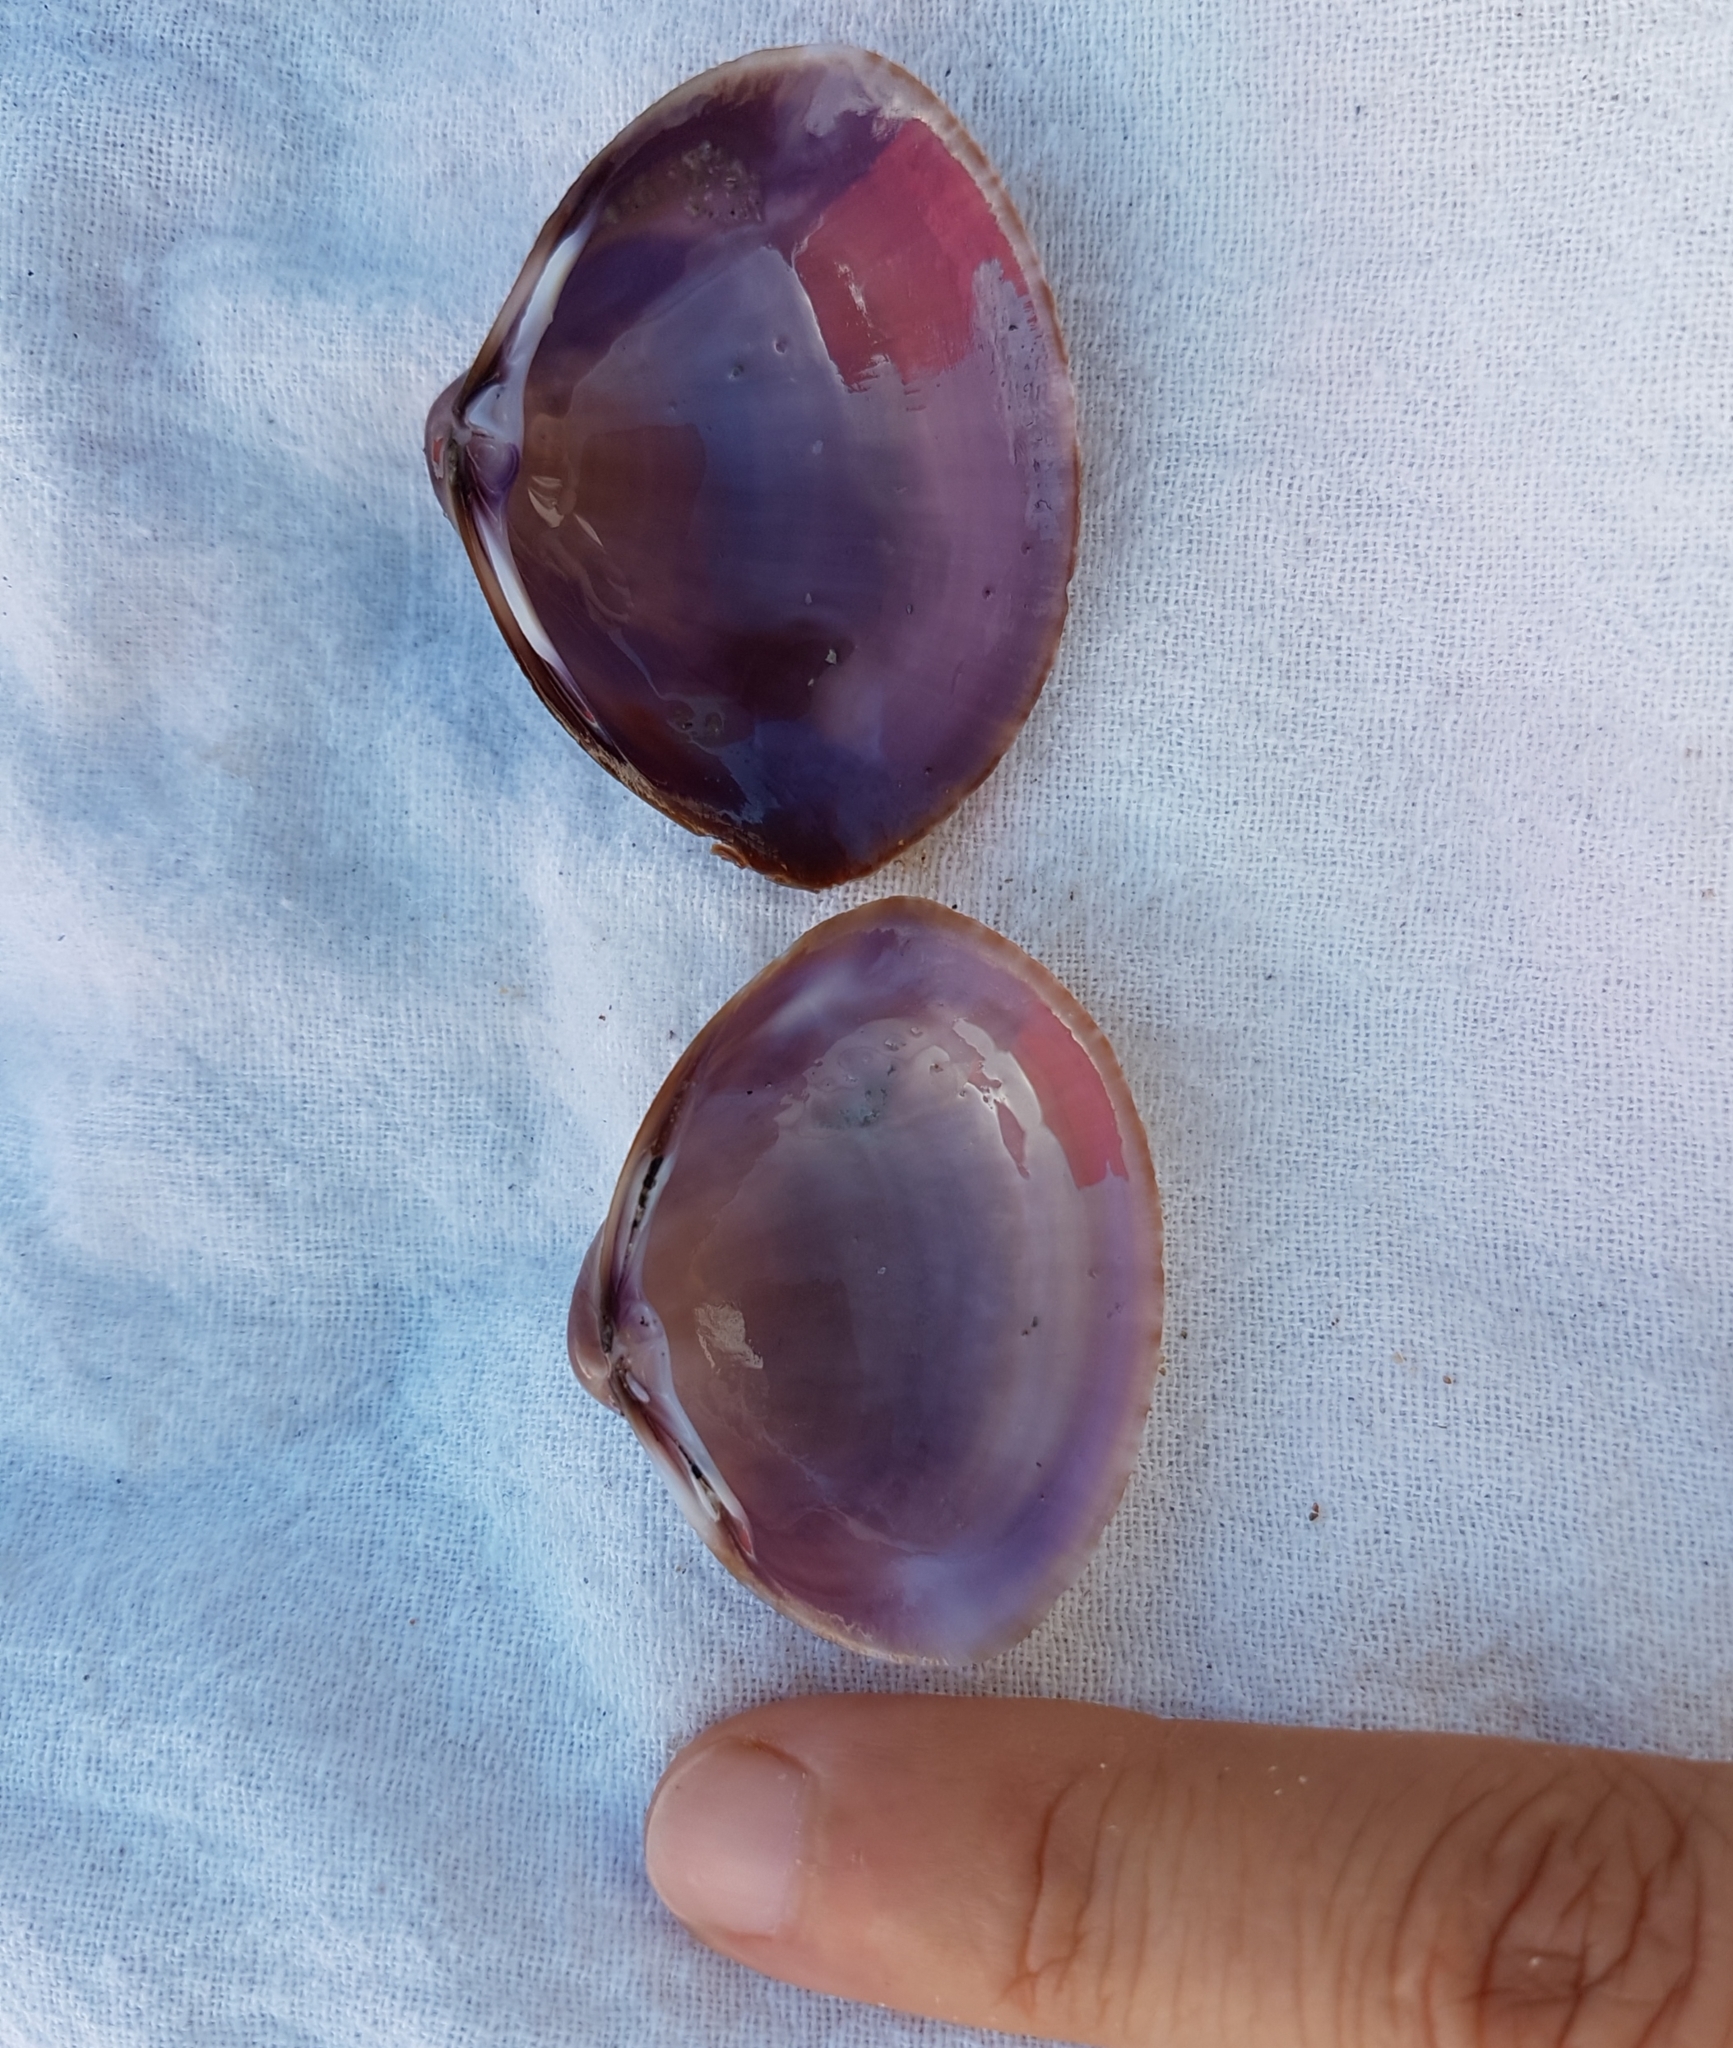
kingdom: Animalia
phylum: Mollusca
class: Bivalvia
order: Venerida
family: Mactridae
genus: Mactra
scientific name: Mactra stultorum
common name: Rayed trough shell
